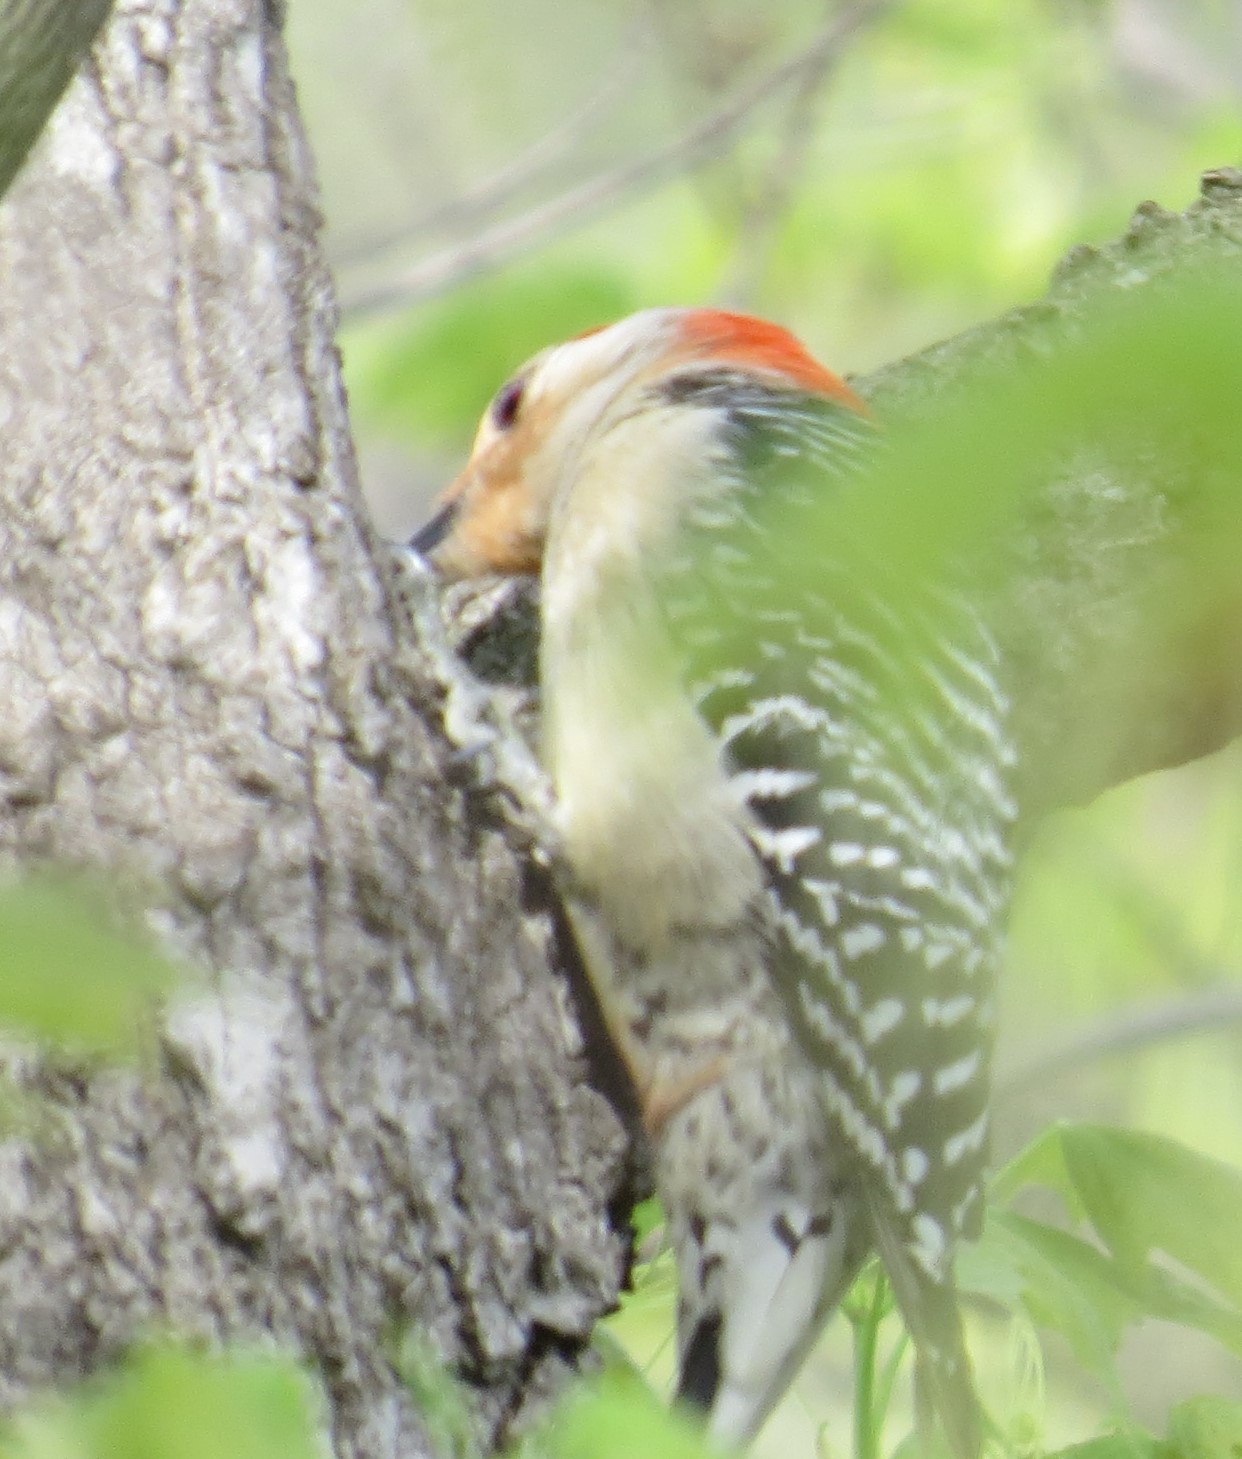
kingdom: Animalia
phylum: Chordata
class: Aves
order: Piciformes
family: Picidae
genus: Melanerpes
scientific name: Melanerpes carolinus
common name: Red-bellied woodpecker
